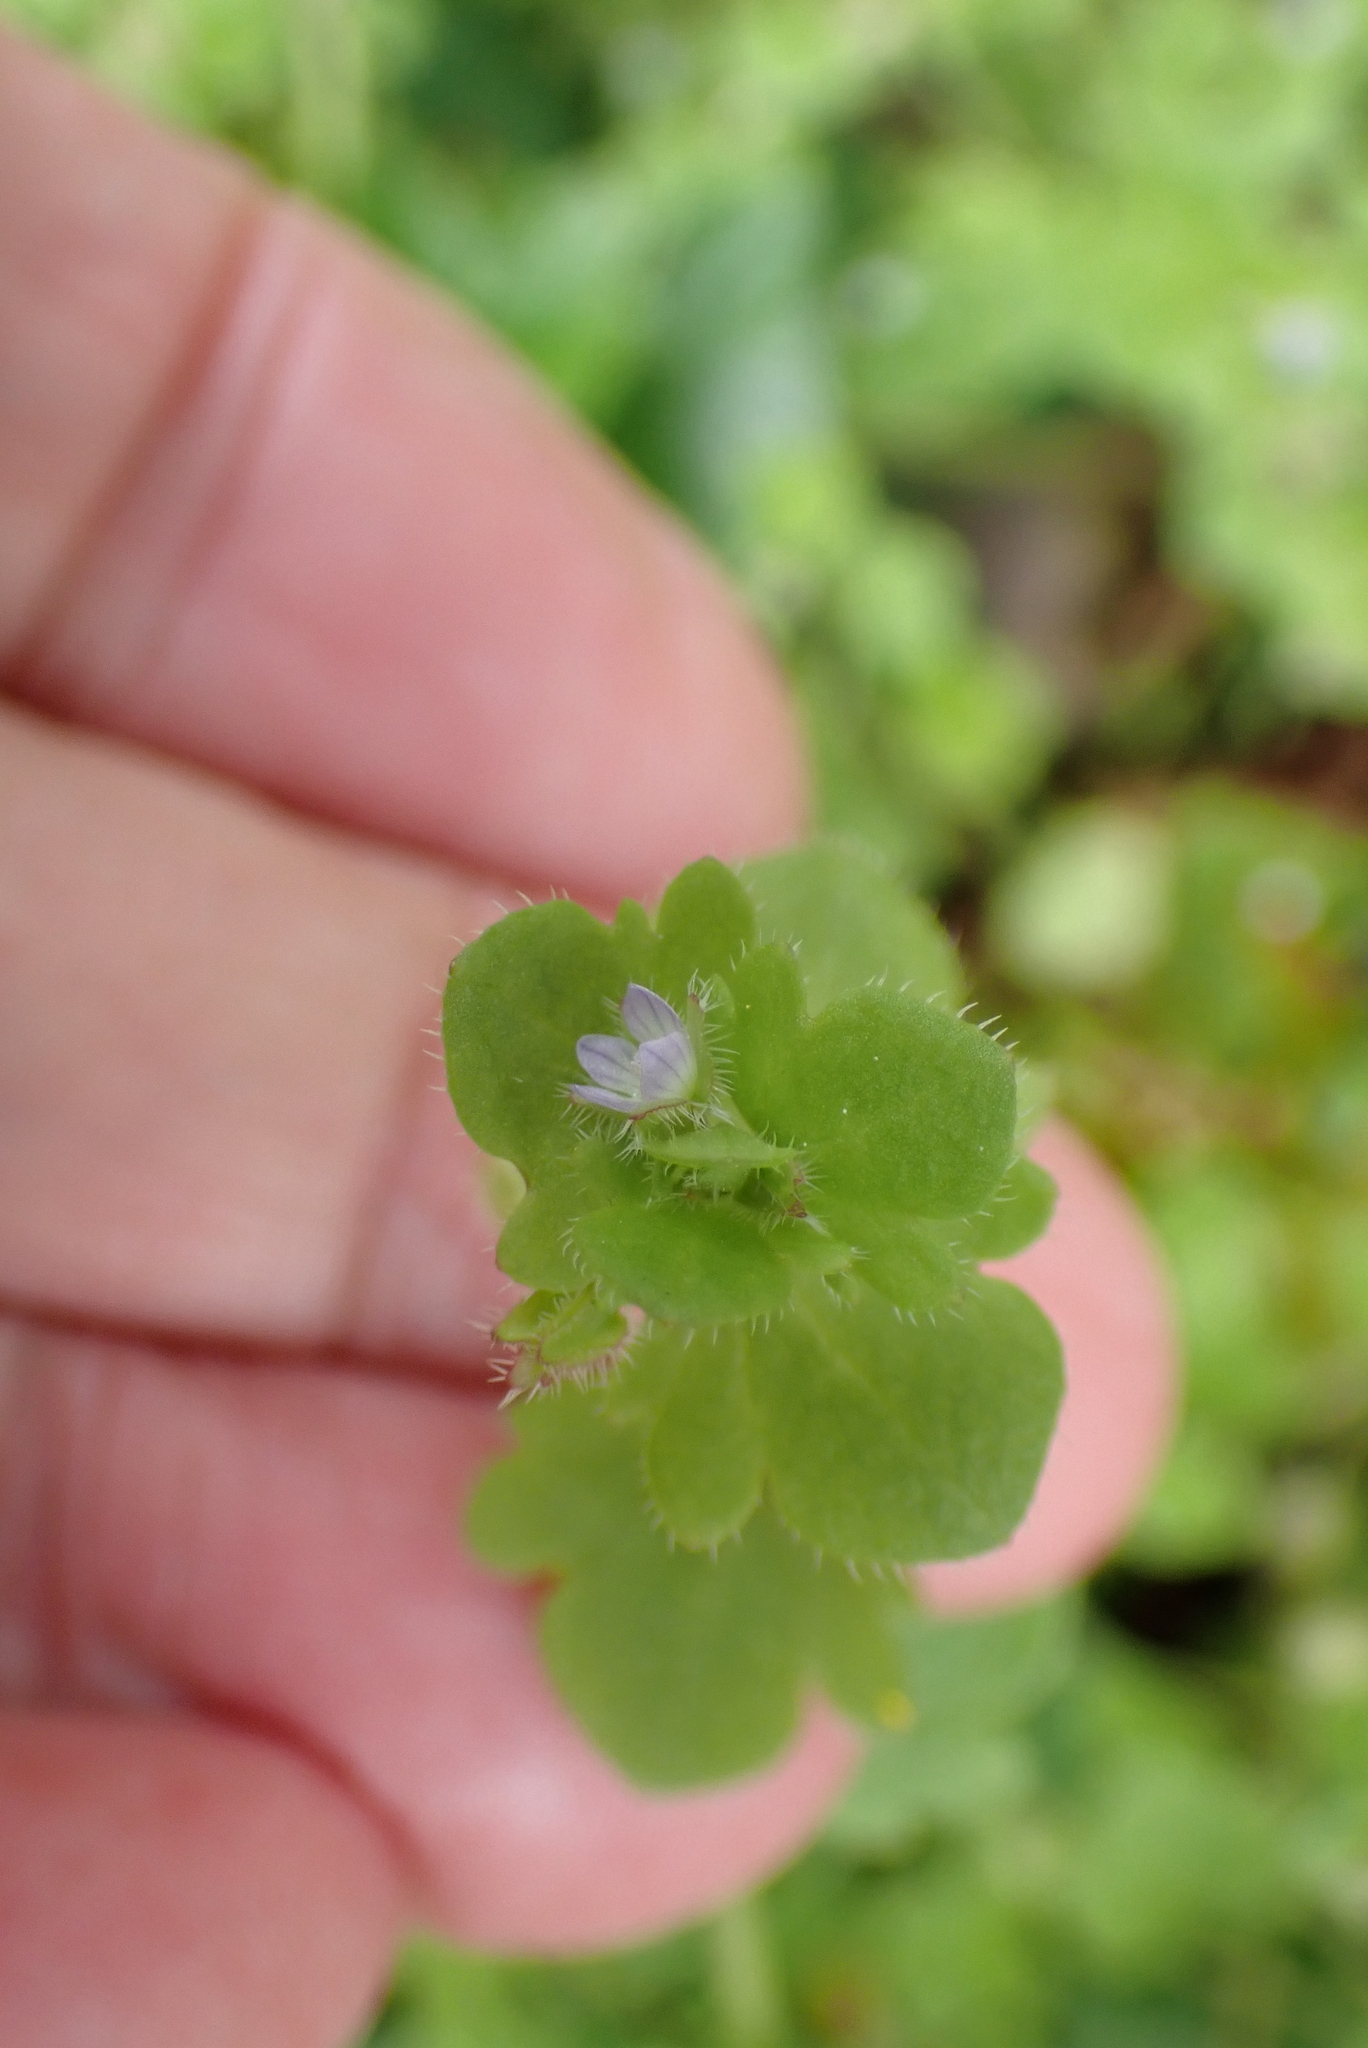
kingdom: Plantae
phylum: Tracheophyta
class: Magnoliopsida
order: Lamiales
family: Plantaginaceae
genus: Veronica
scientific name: Veronica sublobata
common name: False ivy-leaved speedwell
